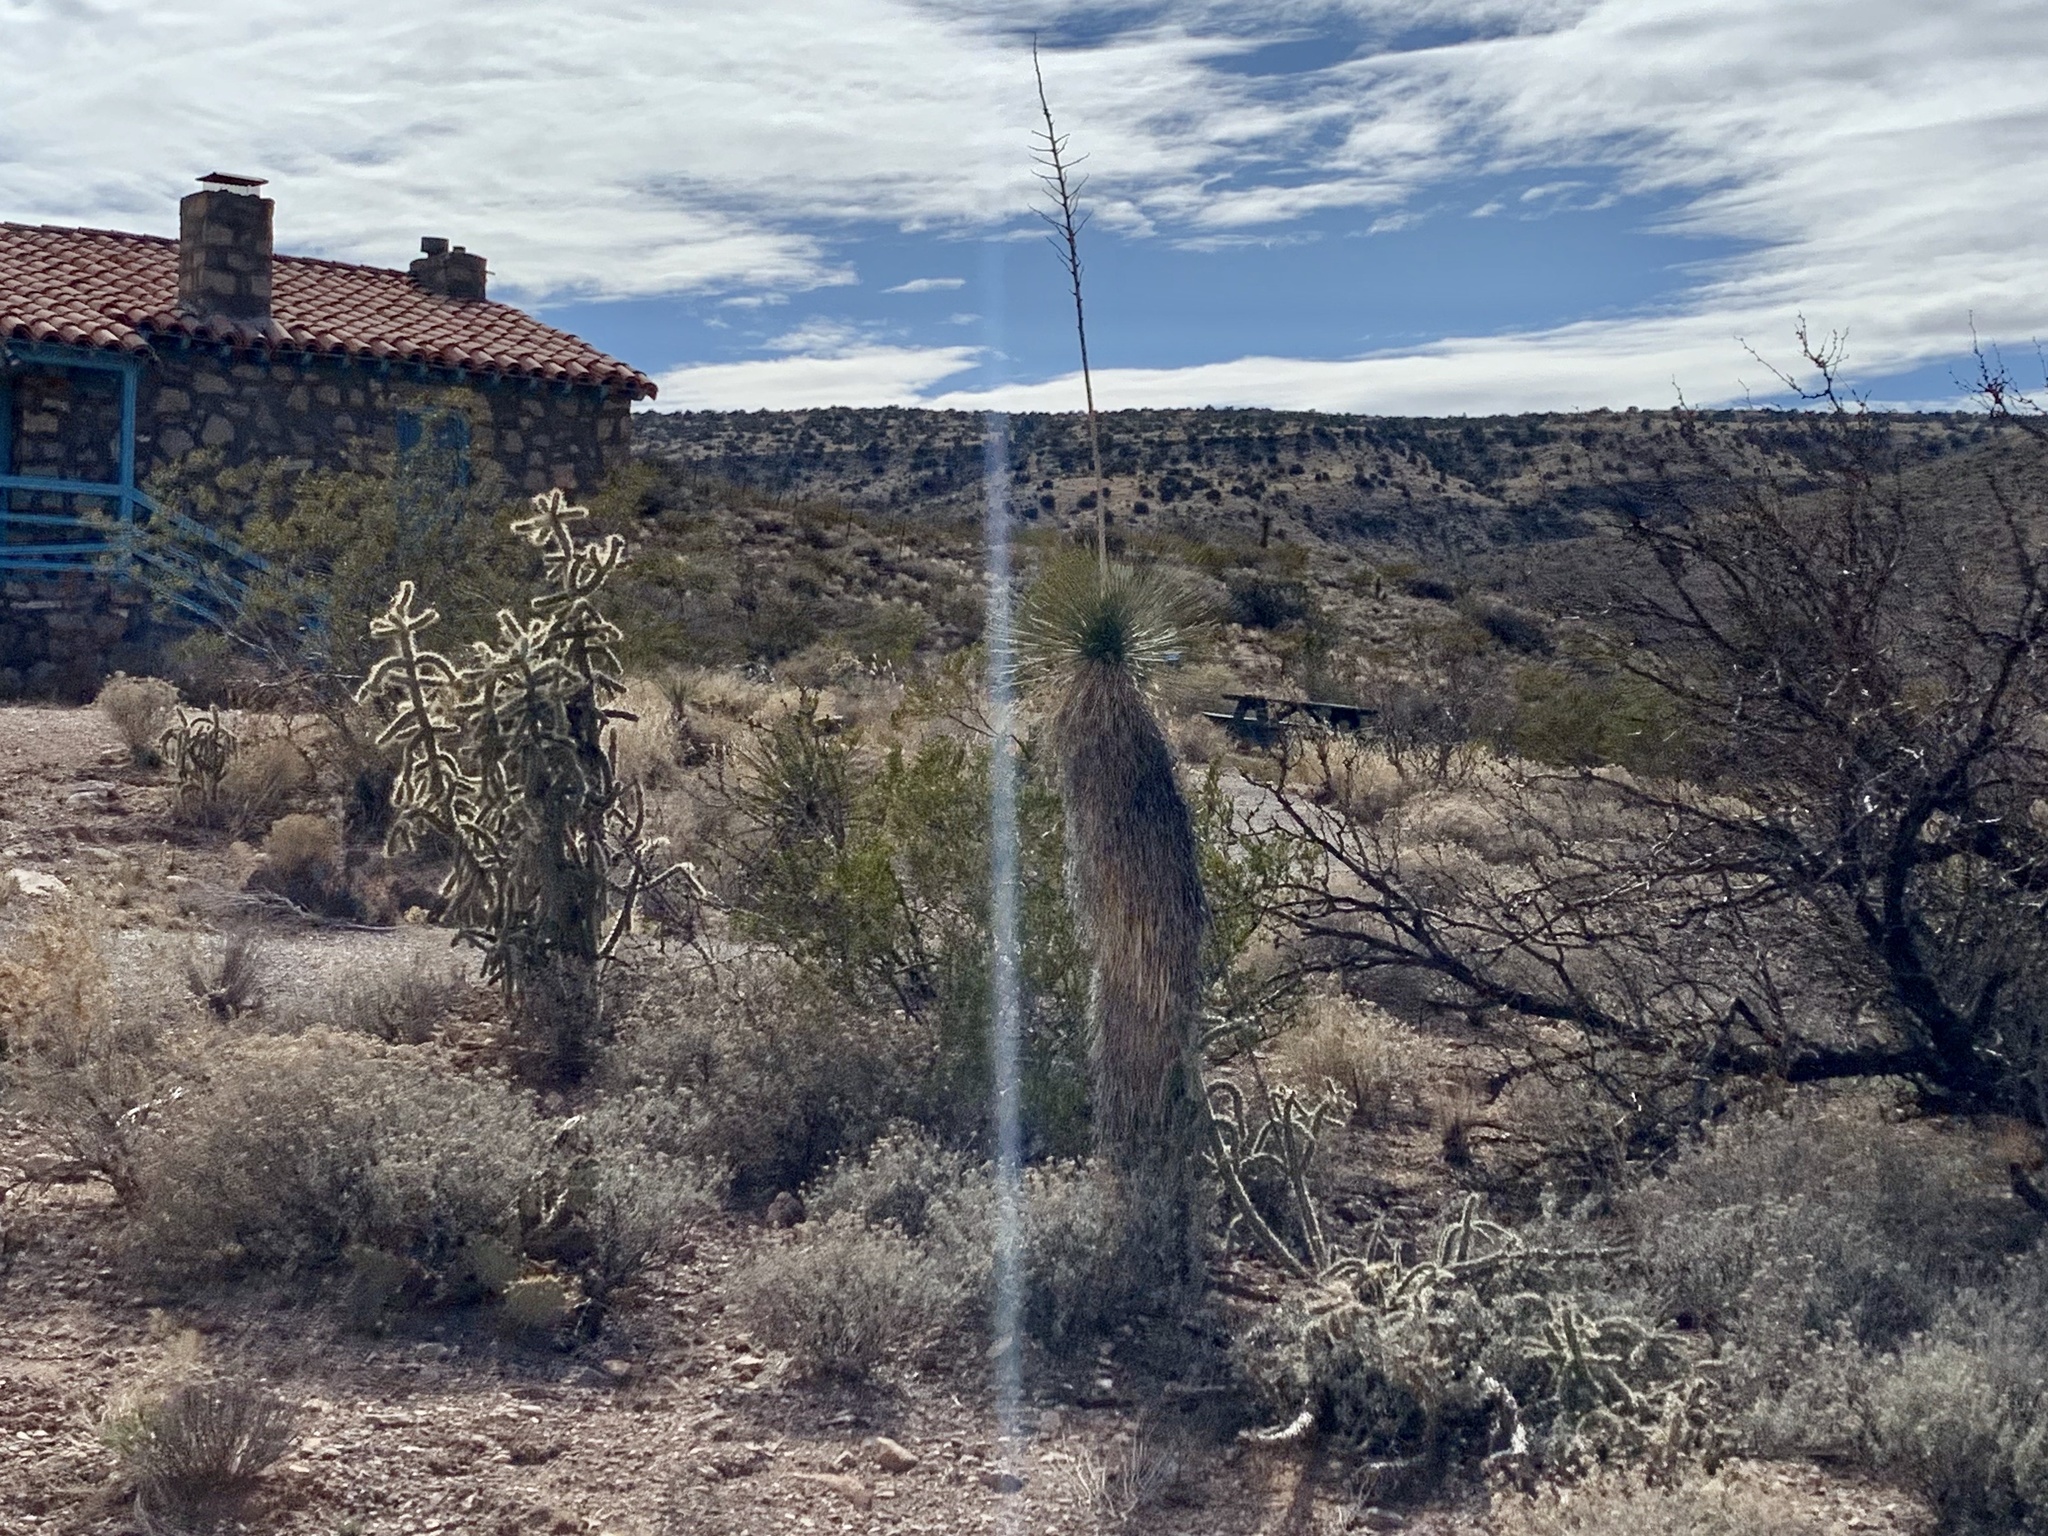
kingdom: Plantae
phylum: Tracheophyta
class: Liliopsida
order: Asparagales
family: Asparagaceae
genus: Yucca
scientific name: Yucca elata
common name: Palmella
